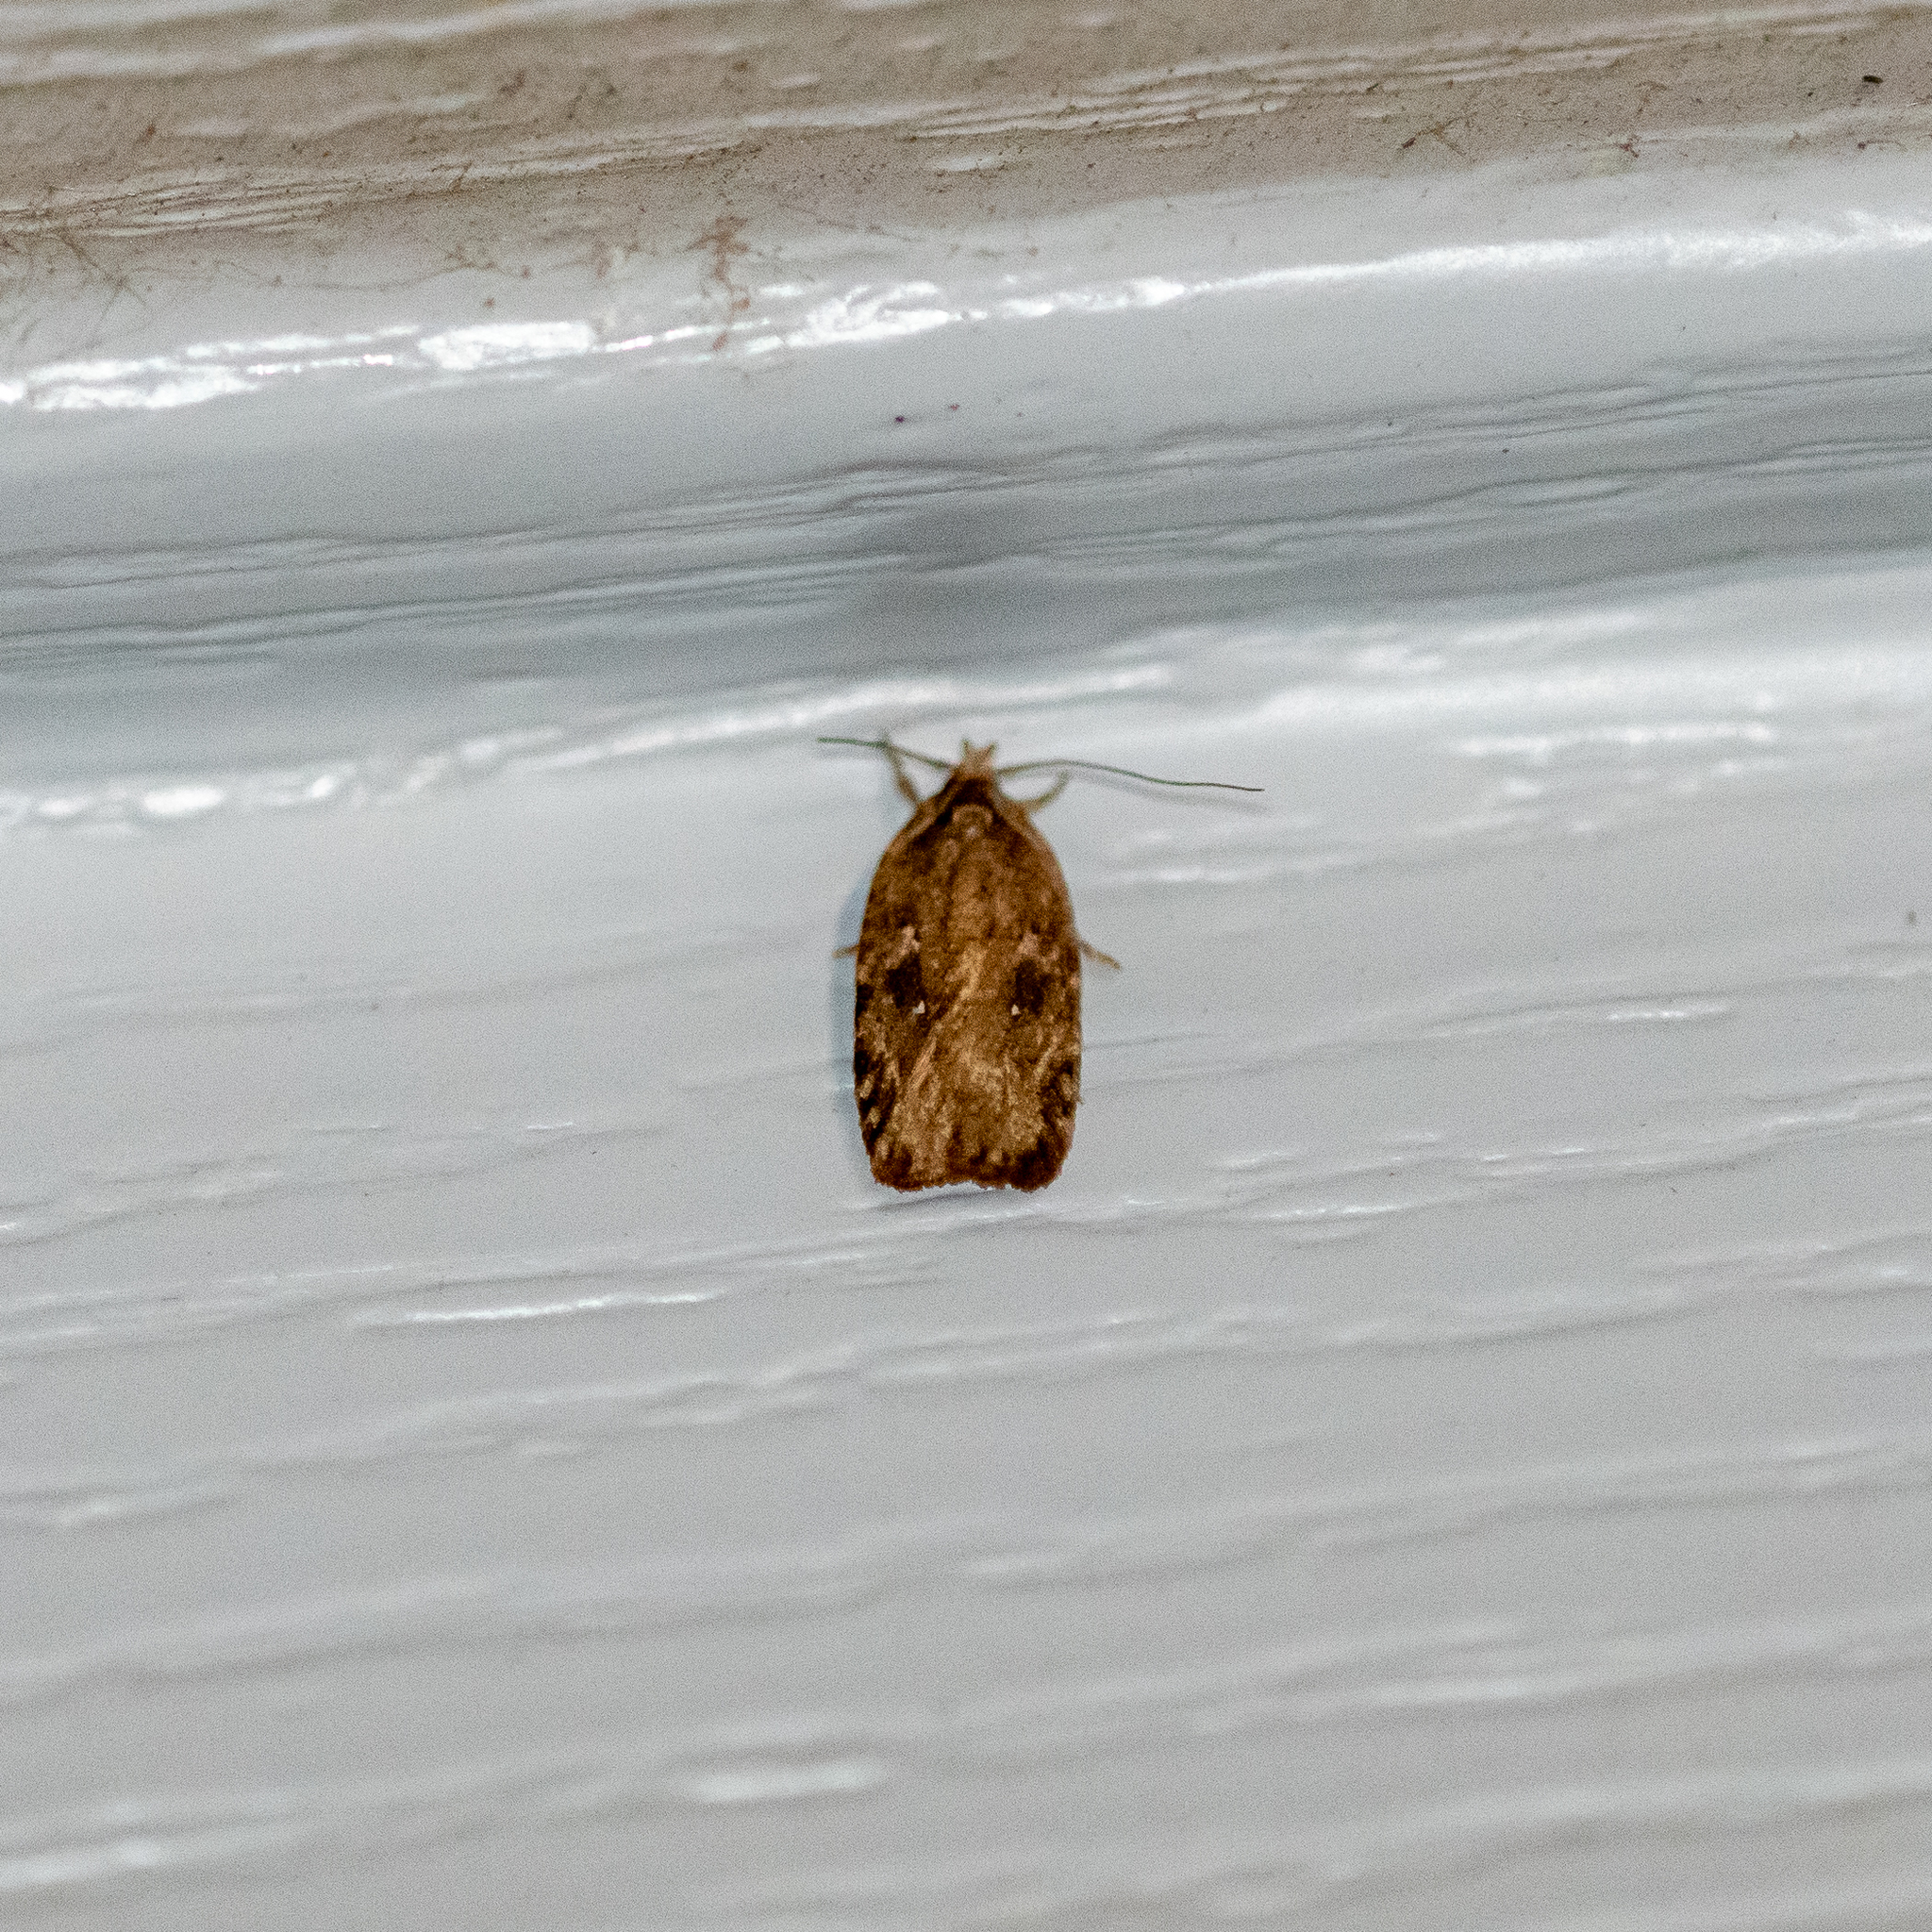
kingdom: Animalia
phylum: Arthropoda
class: Insecta
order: Lepidoptera
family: Depressariidae
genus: Agonopterix
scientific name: Agonopterix pulvipennella
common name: Goldenrod leafffolder
